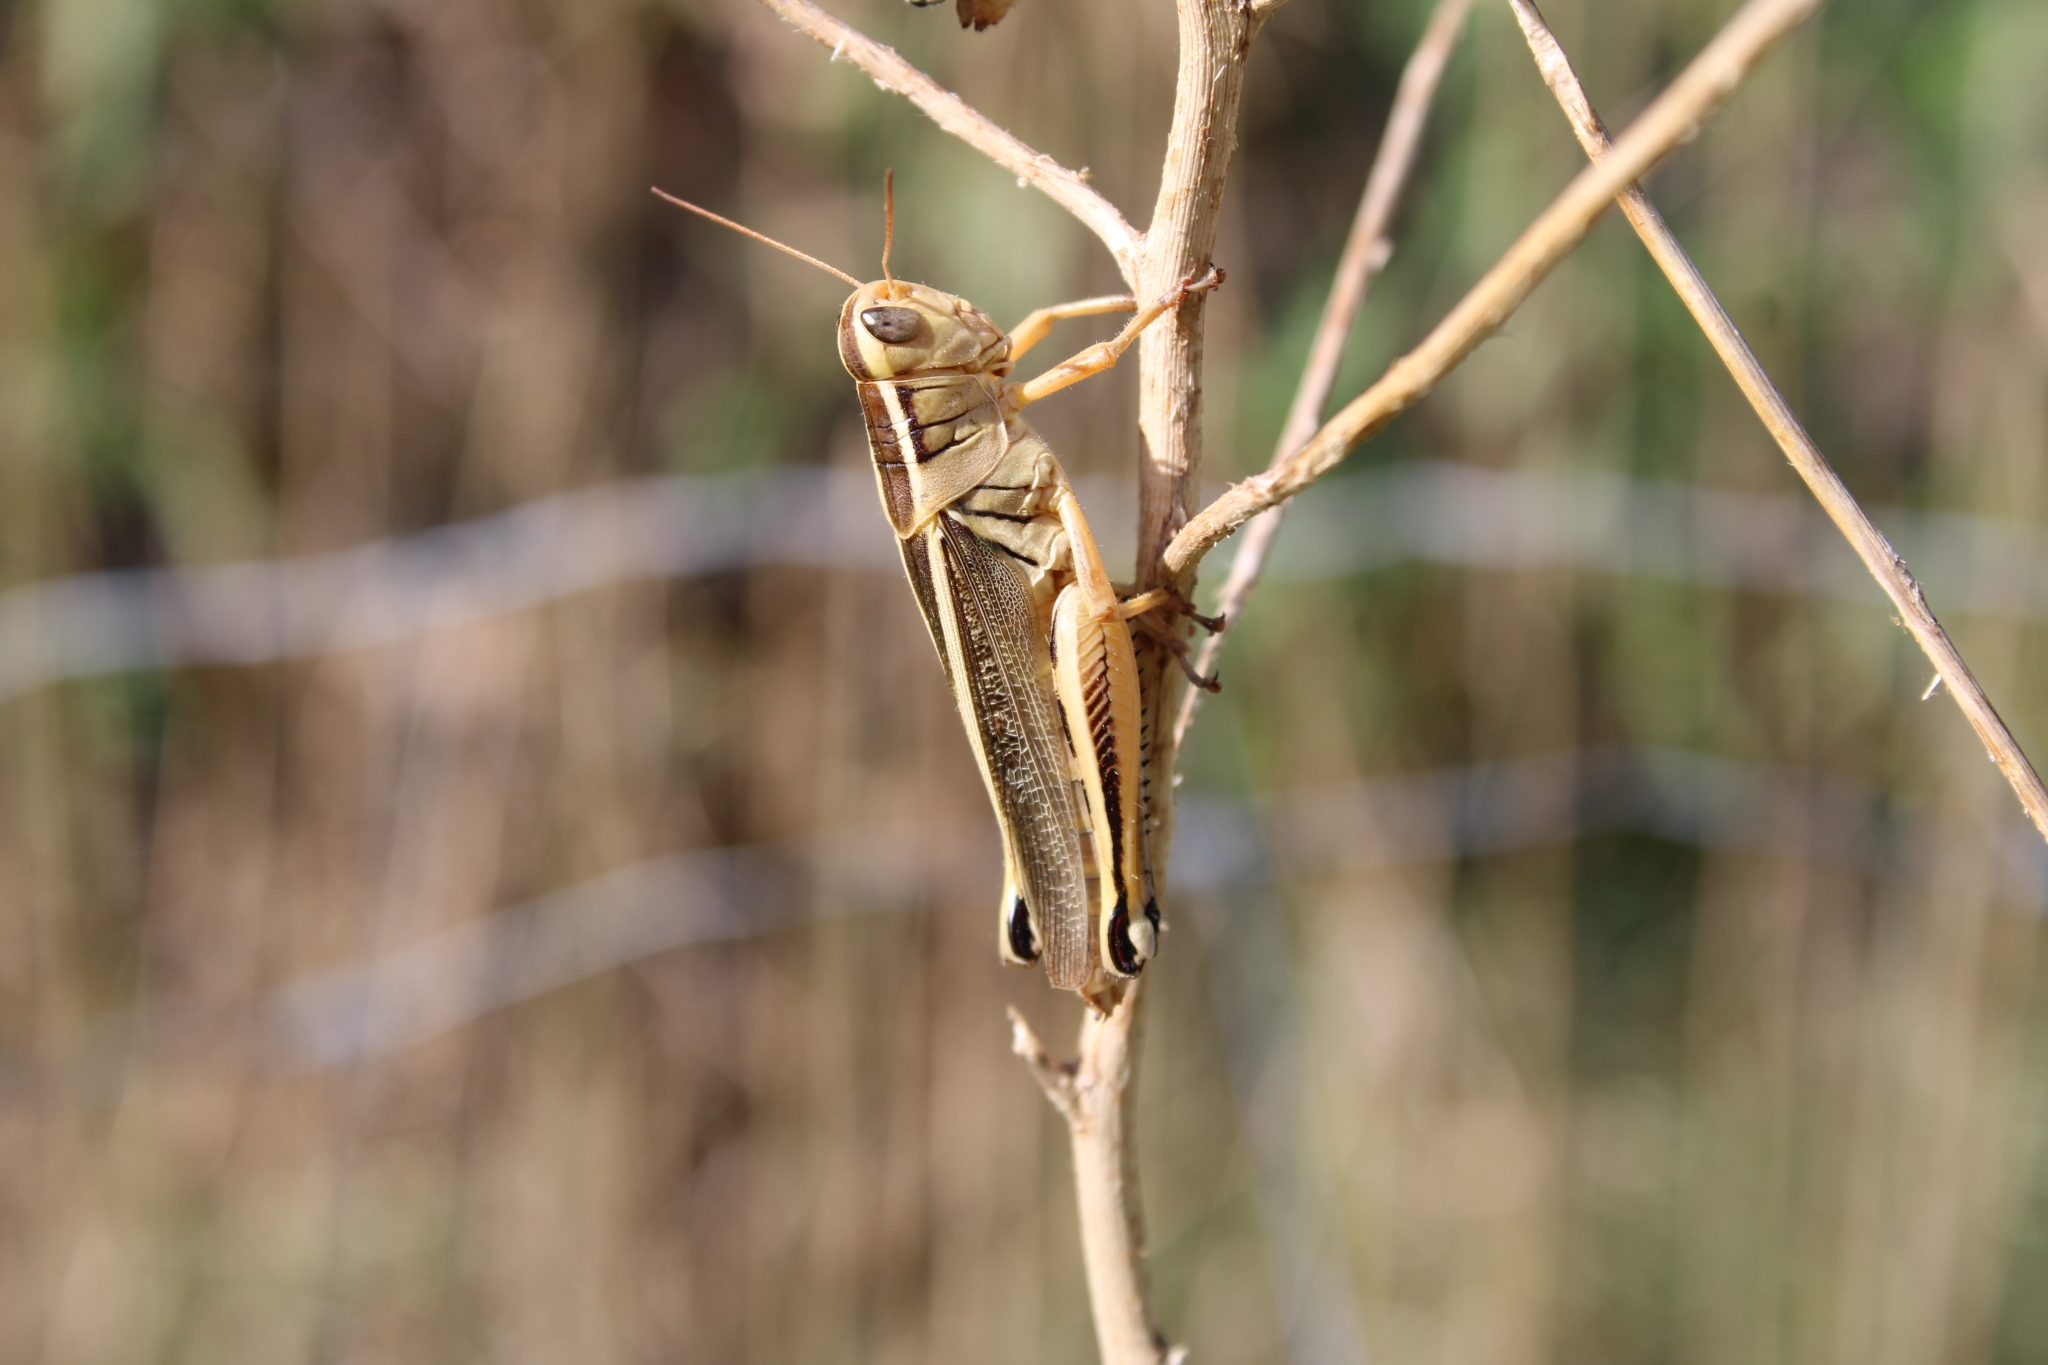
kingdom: Animalia
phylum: Arthropoda
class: Insecta
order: Orthoptera
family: Acrididae
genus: Melanoplus
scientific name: Melanoplus bivittatus
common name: Two-striped grasshopper
